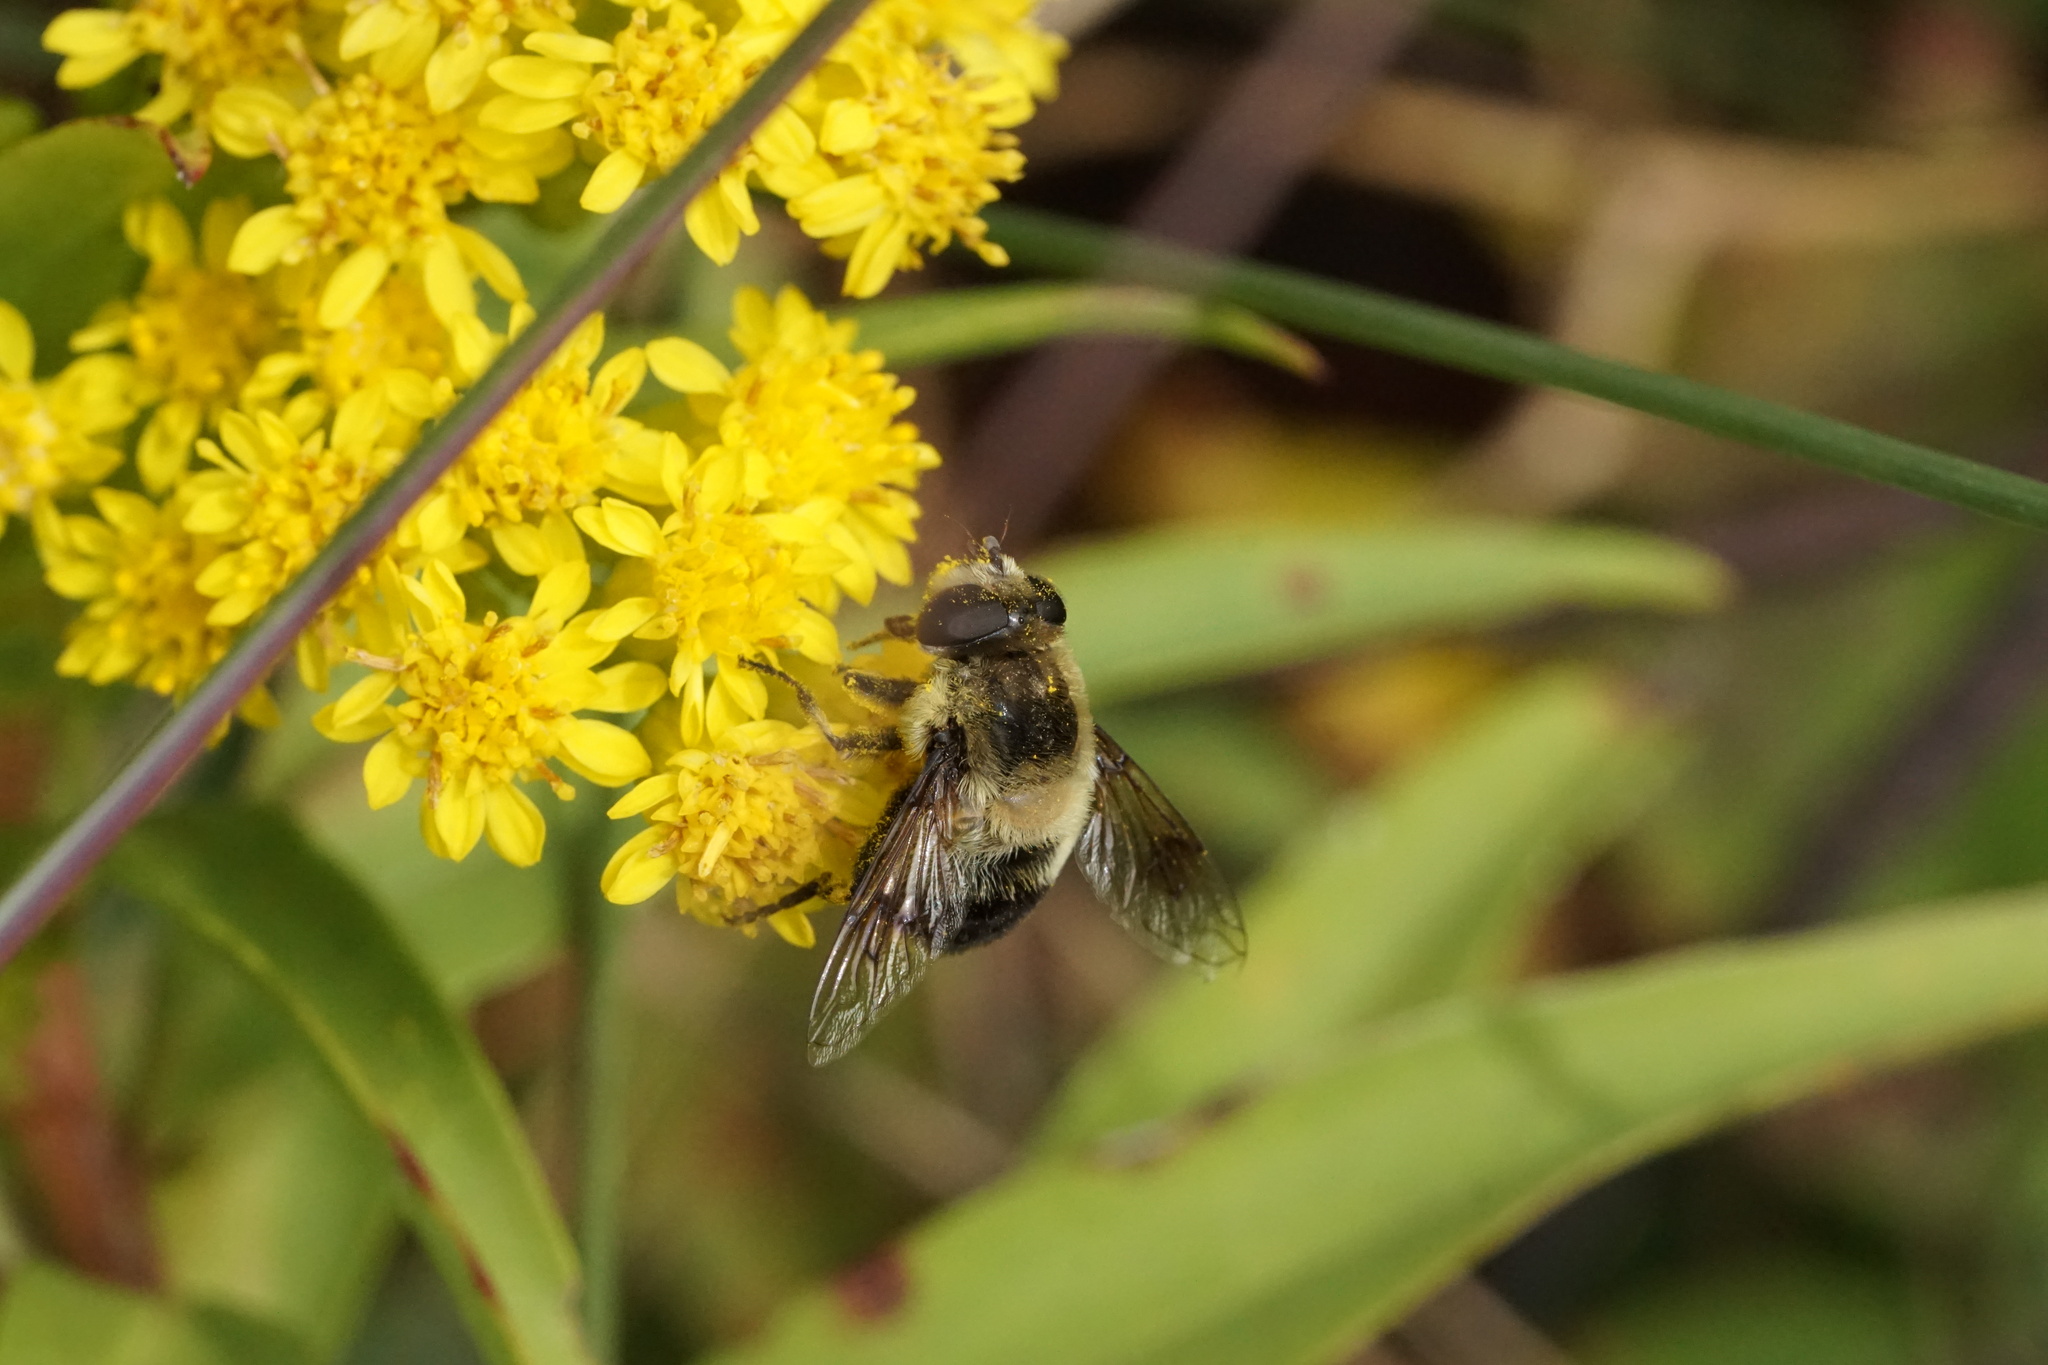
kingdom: Animalia
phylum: Arthropoda
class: Insecta
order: Diptera
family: Syrphidae
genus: Eristalis
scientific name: Eristalis anthophorina
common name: Orange-spotted drone fly
